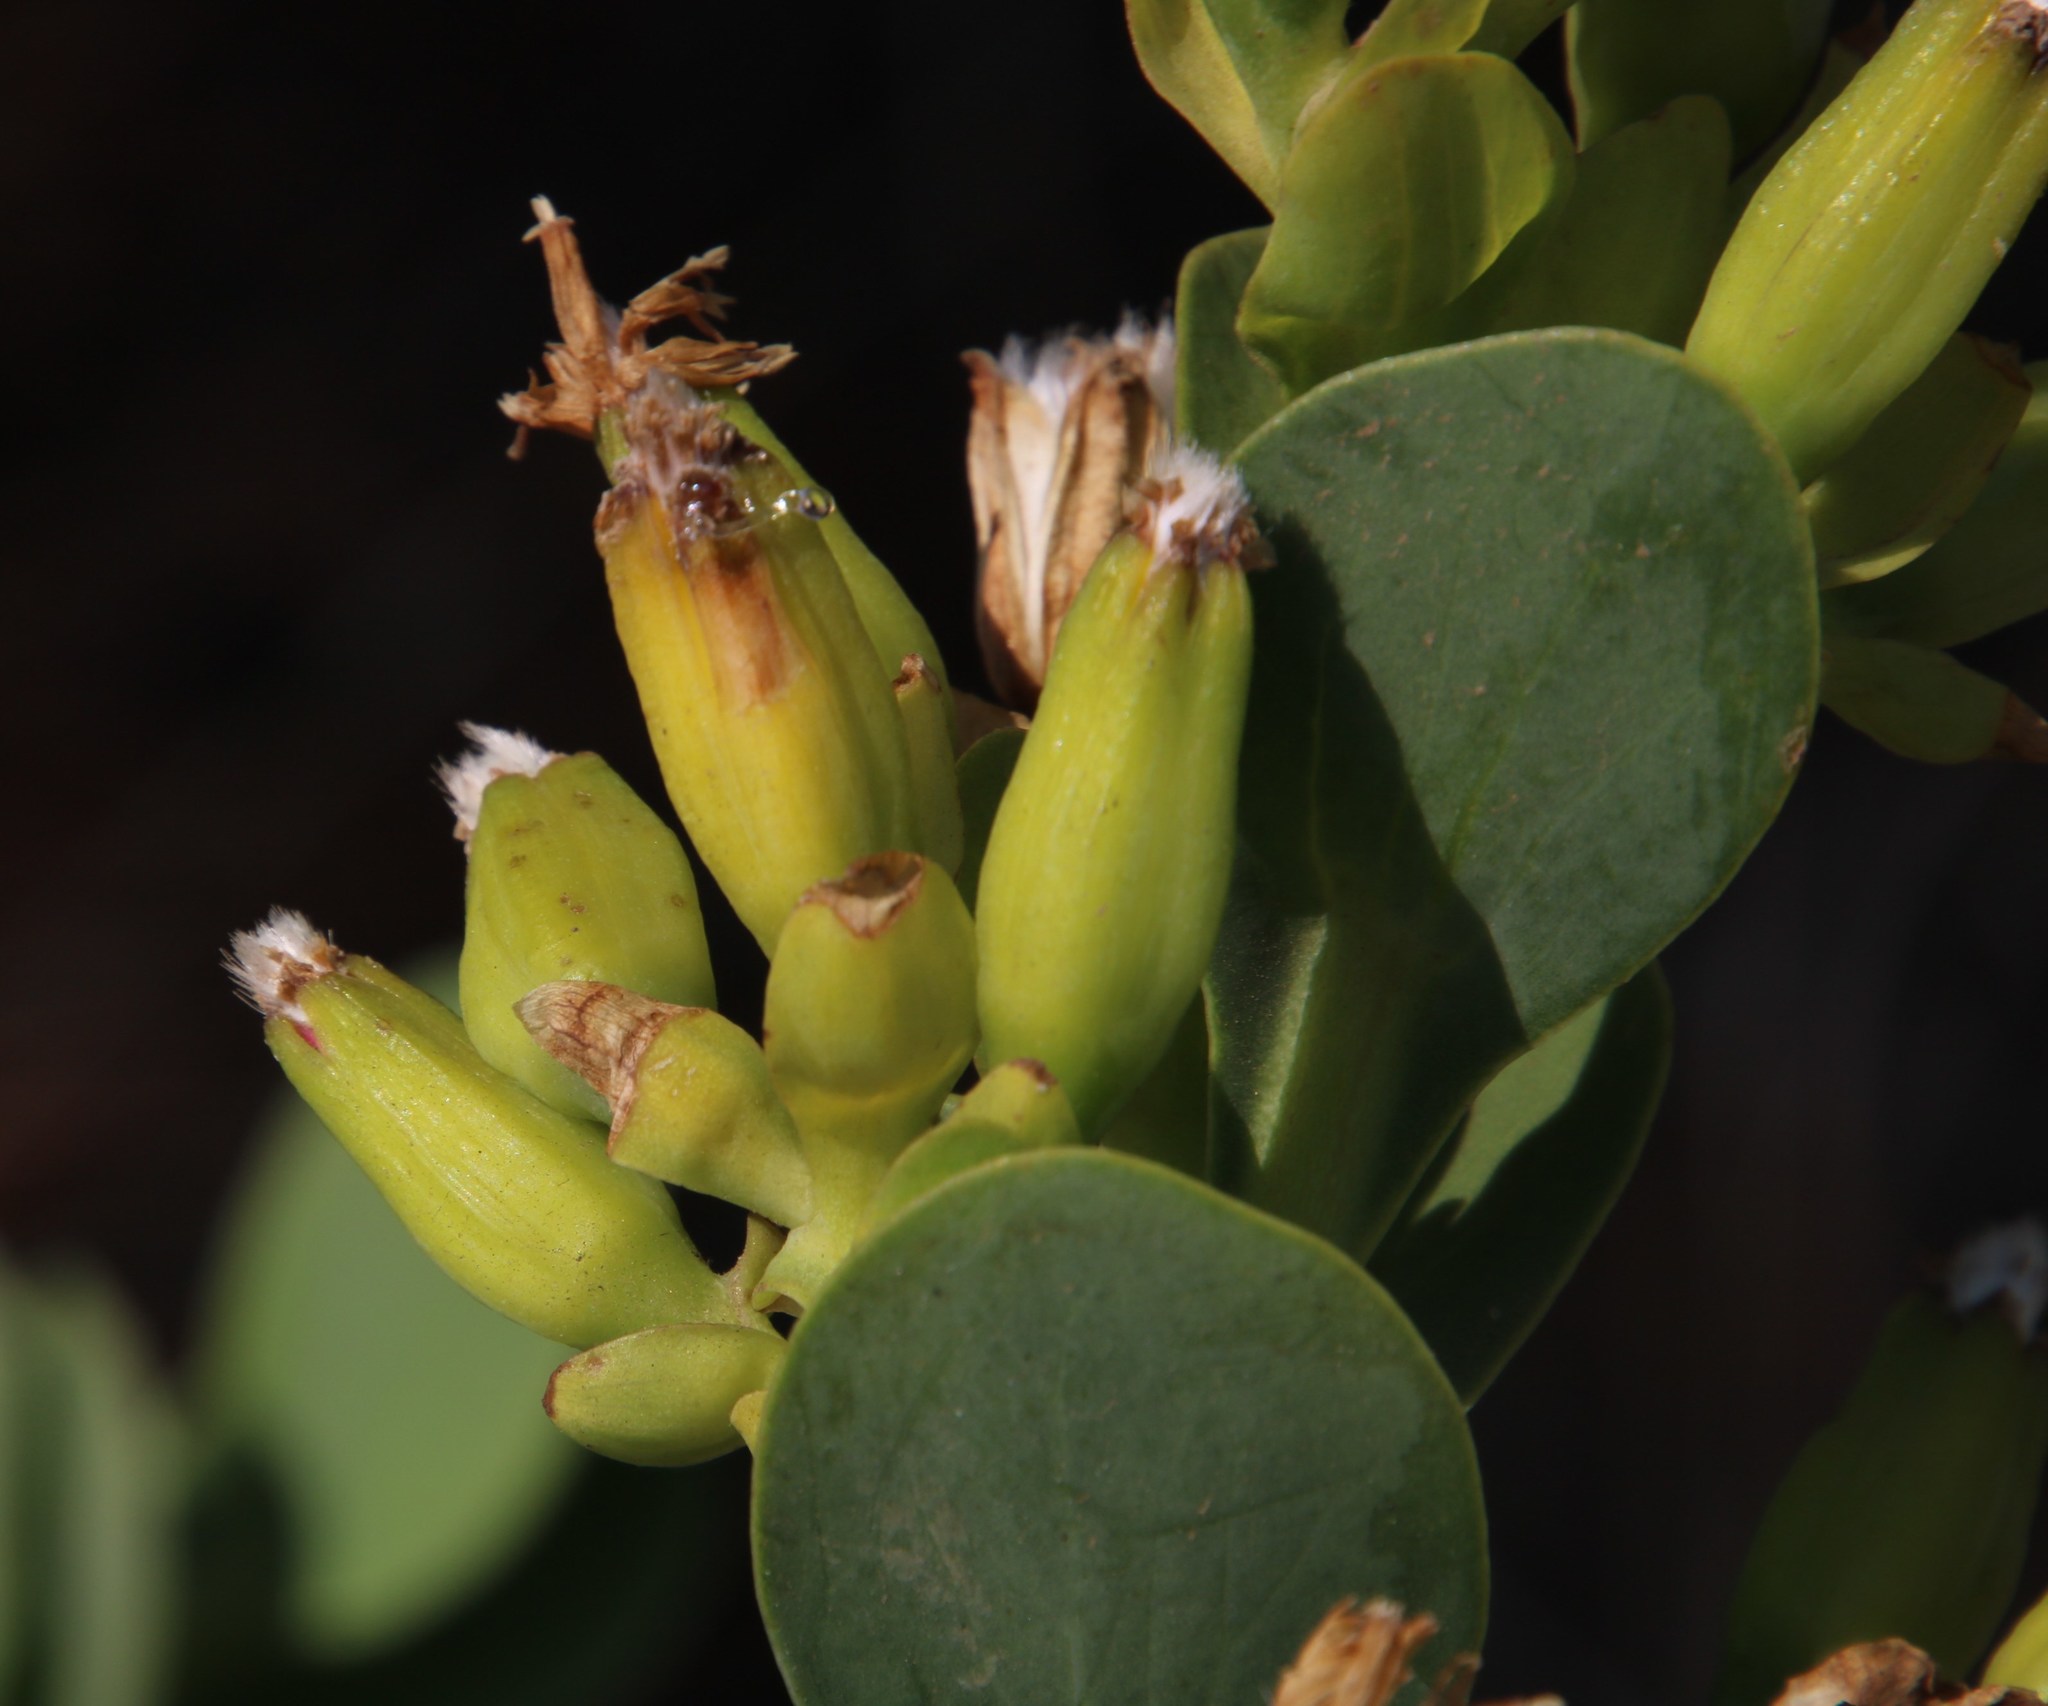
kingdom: Plantae
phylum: Tracheophyta
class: Magnoliopsida
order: Asterales
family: Asteraceae
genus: Lopholaena
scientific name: Lopholaena coriifolia
